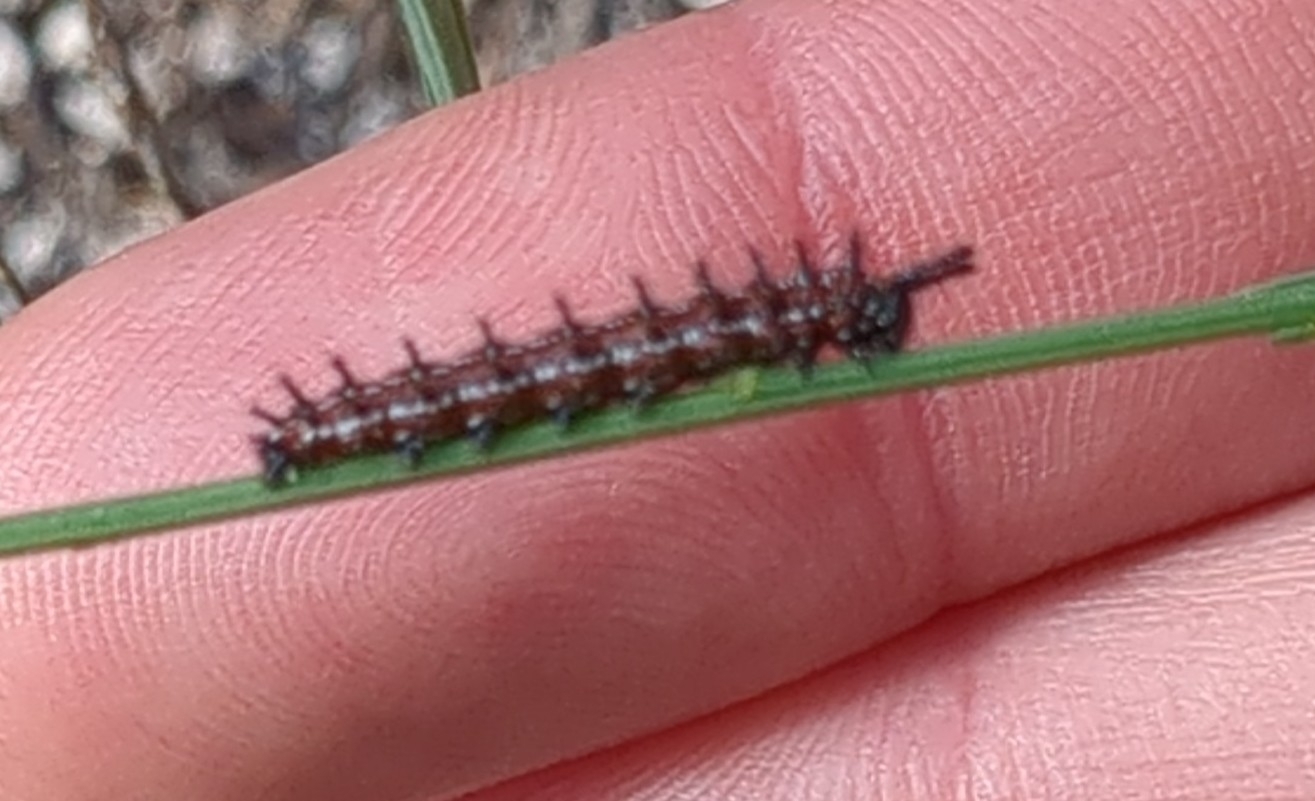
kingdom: Animalia
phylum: Arthropoda
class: Insecta
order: Lepidoptera
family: Nymphalidae
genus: Euptoieta
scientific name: Euptoieta claudia
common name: Variegated fritillary
